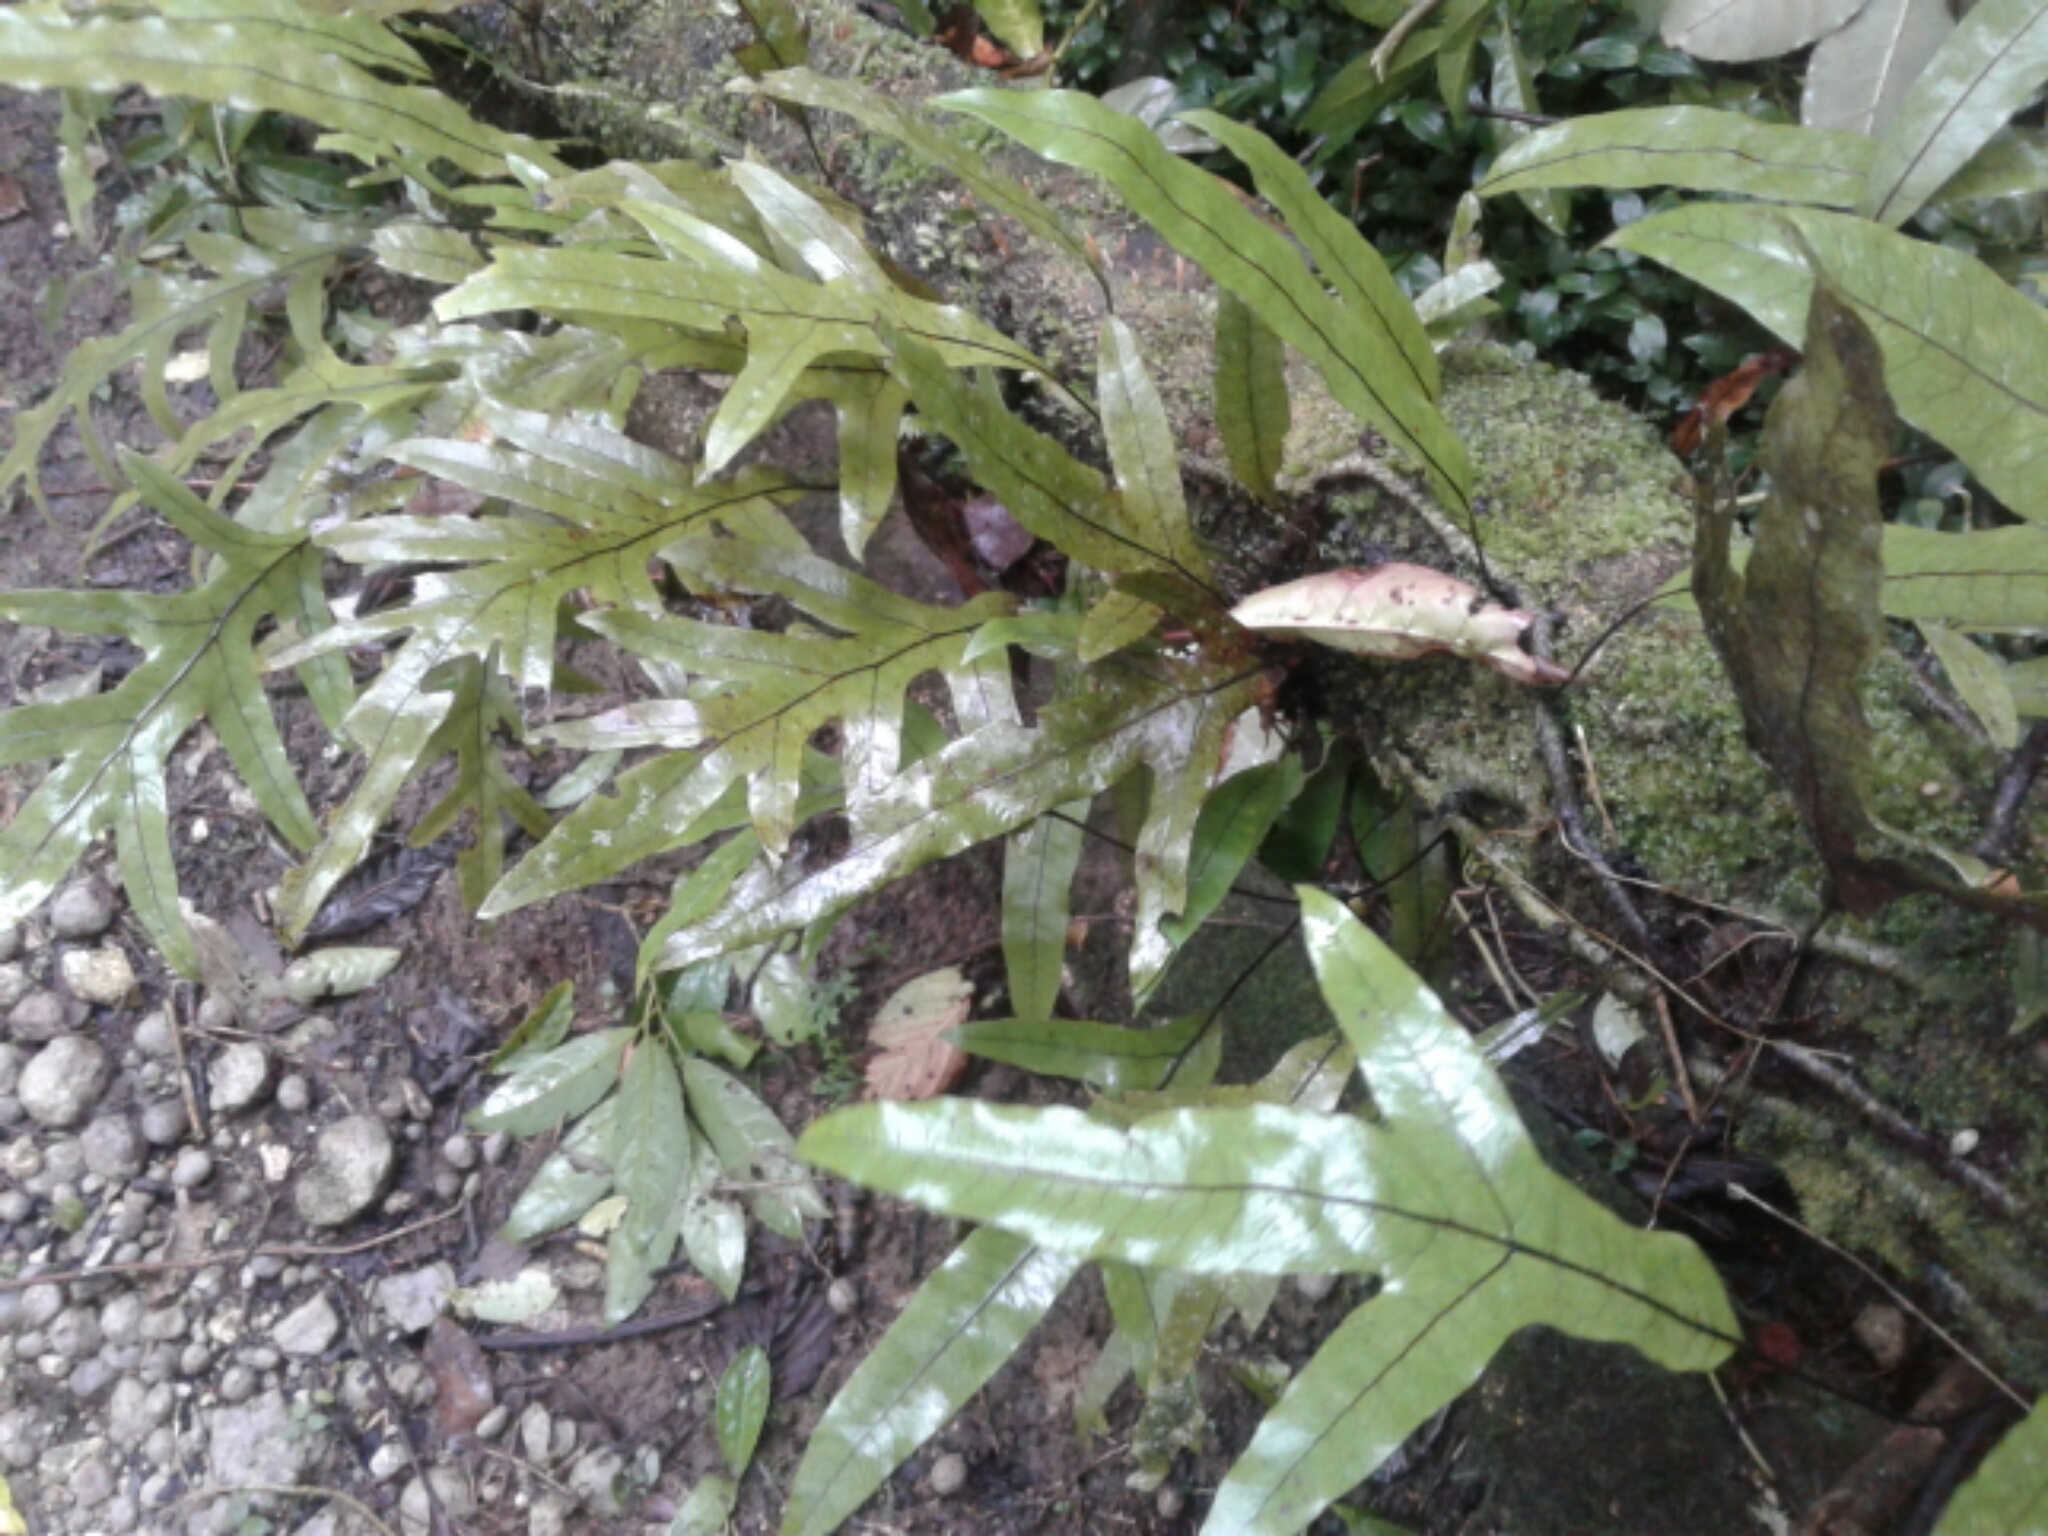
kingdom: Plantae
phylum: Tracheophyta
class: Polypodiopsida
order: Polypodiales
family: Polypodiaceae
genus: Lecanopteris
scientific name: Lecanopteris pustulata
